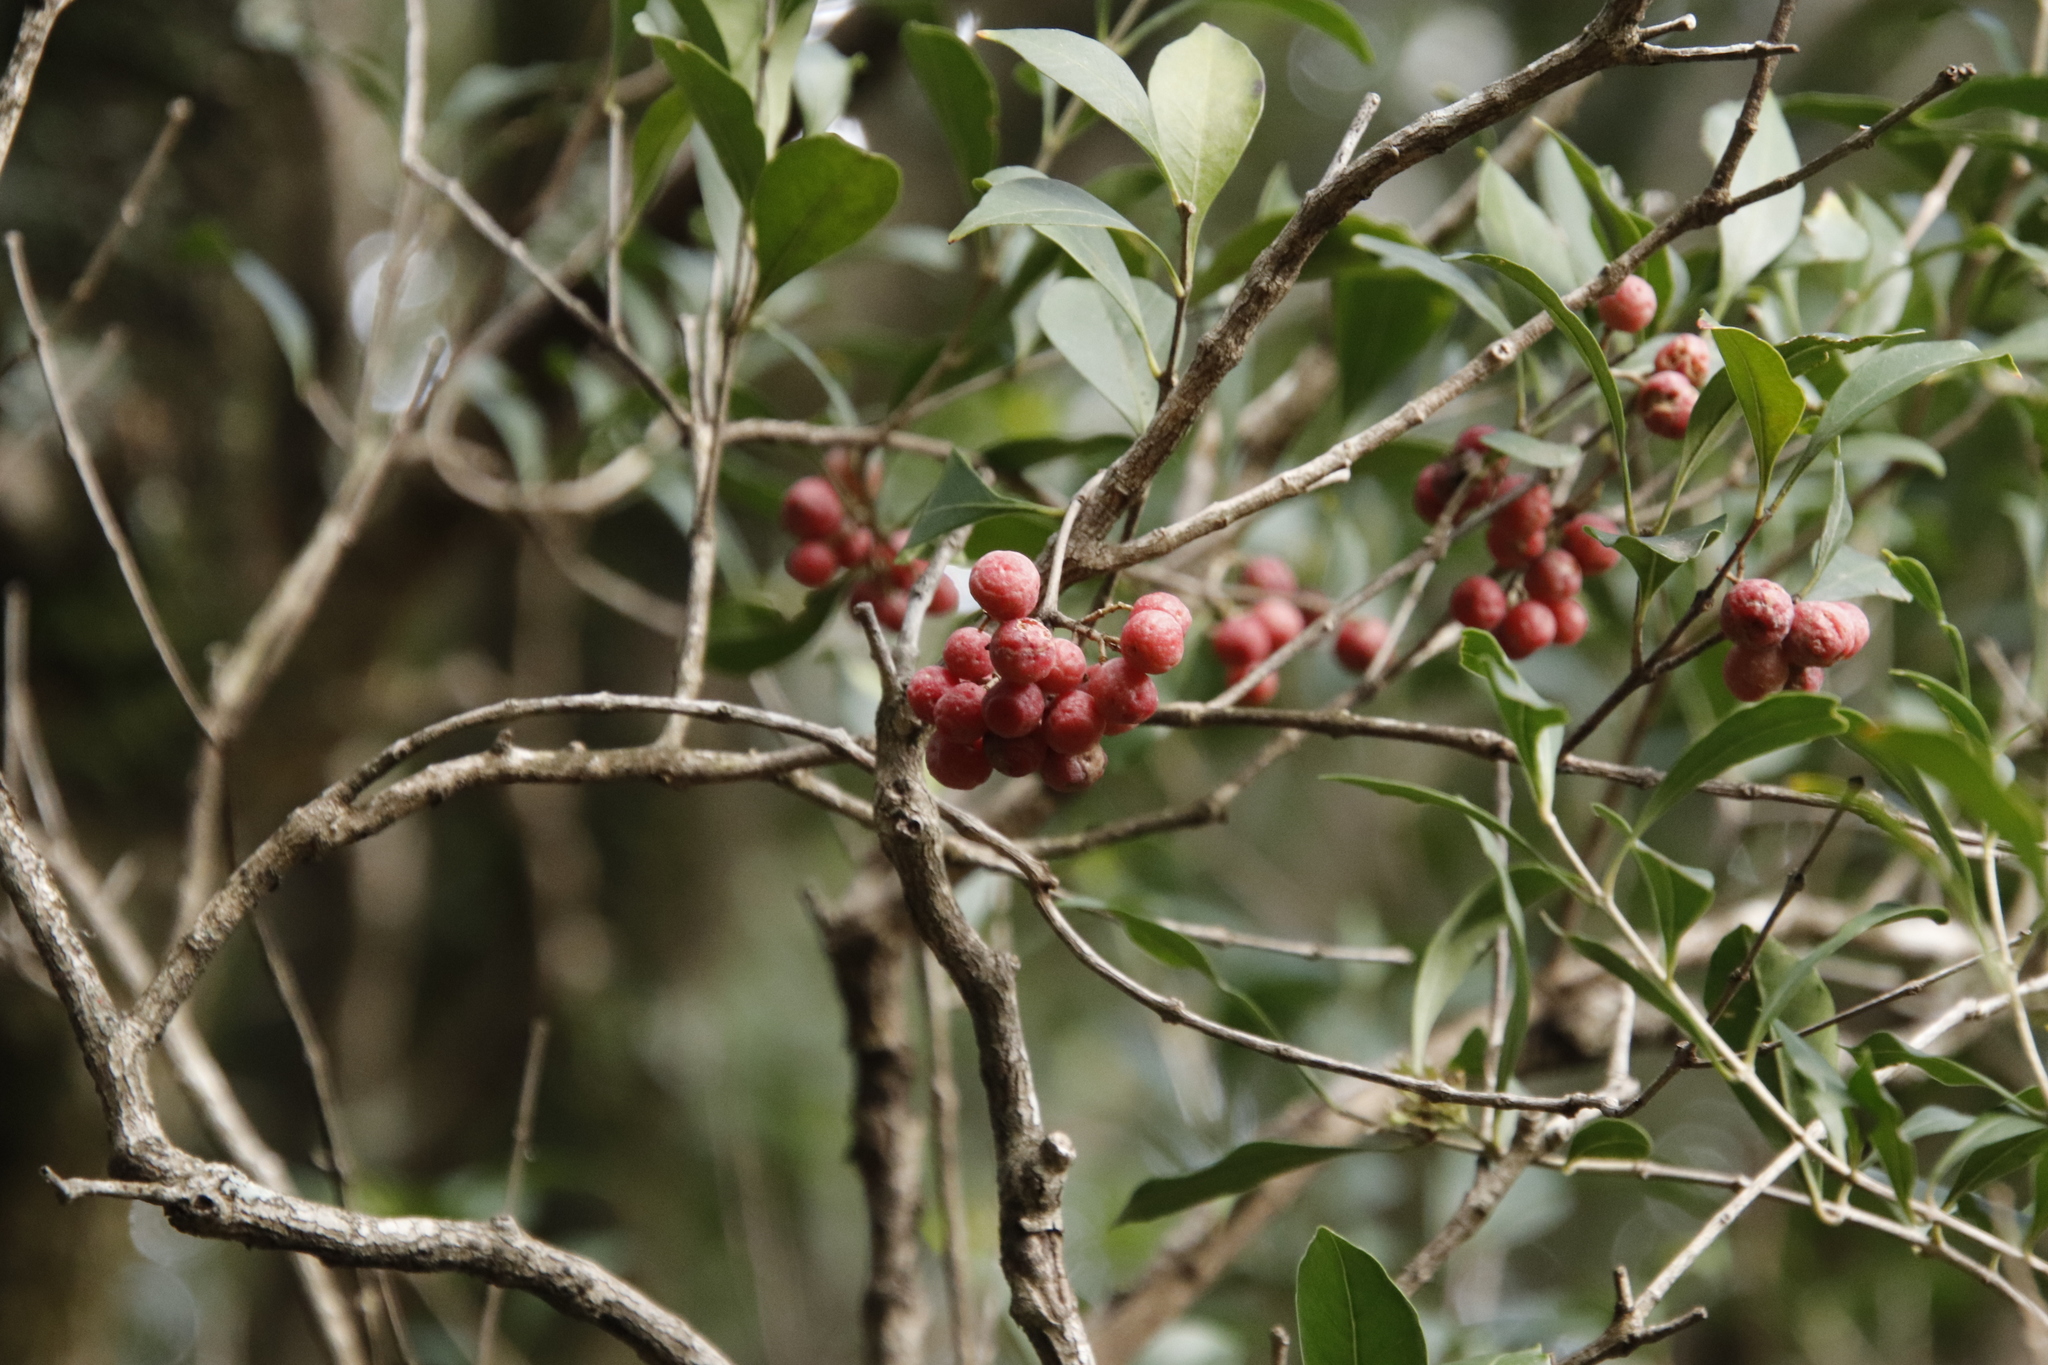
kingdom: Plantae
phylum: Tracheophyta
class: Magnoliopsida
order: Myrtales
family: Penaeaceae
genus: Olinia
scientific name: Olinia ventosa
